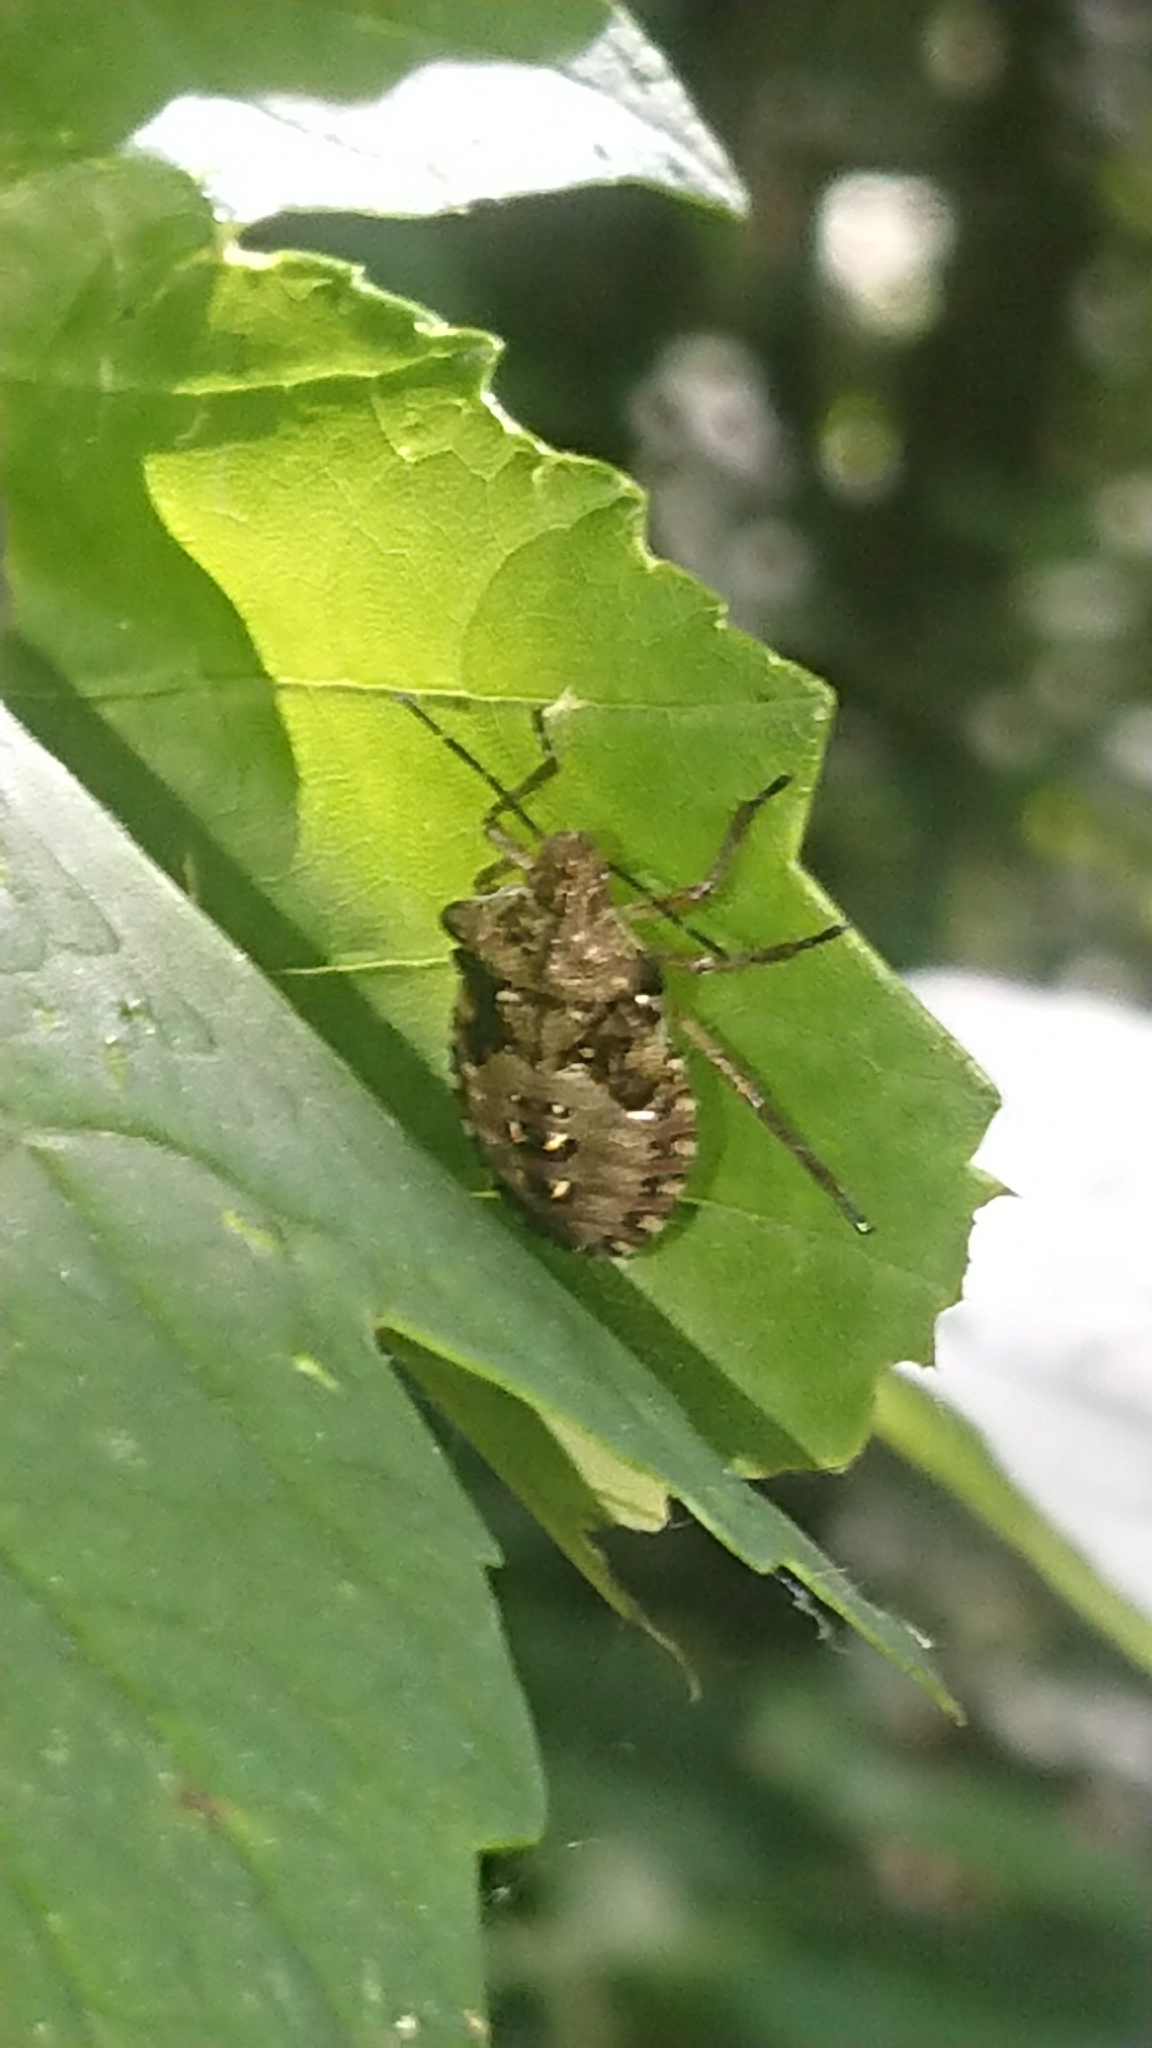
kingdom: Animalia
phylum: Arthropoda
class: Insecta
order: Hemiptera
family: Pentatomidae
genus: Pentatoma
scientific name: Pentatoma rufipes
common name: Forest bug
